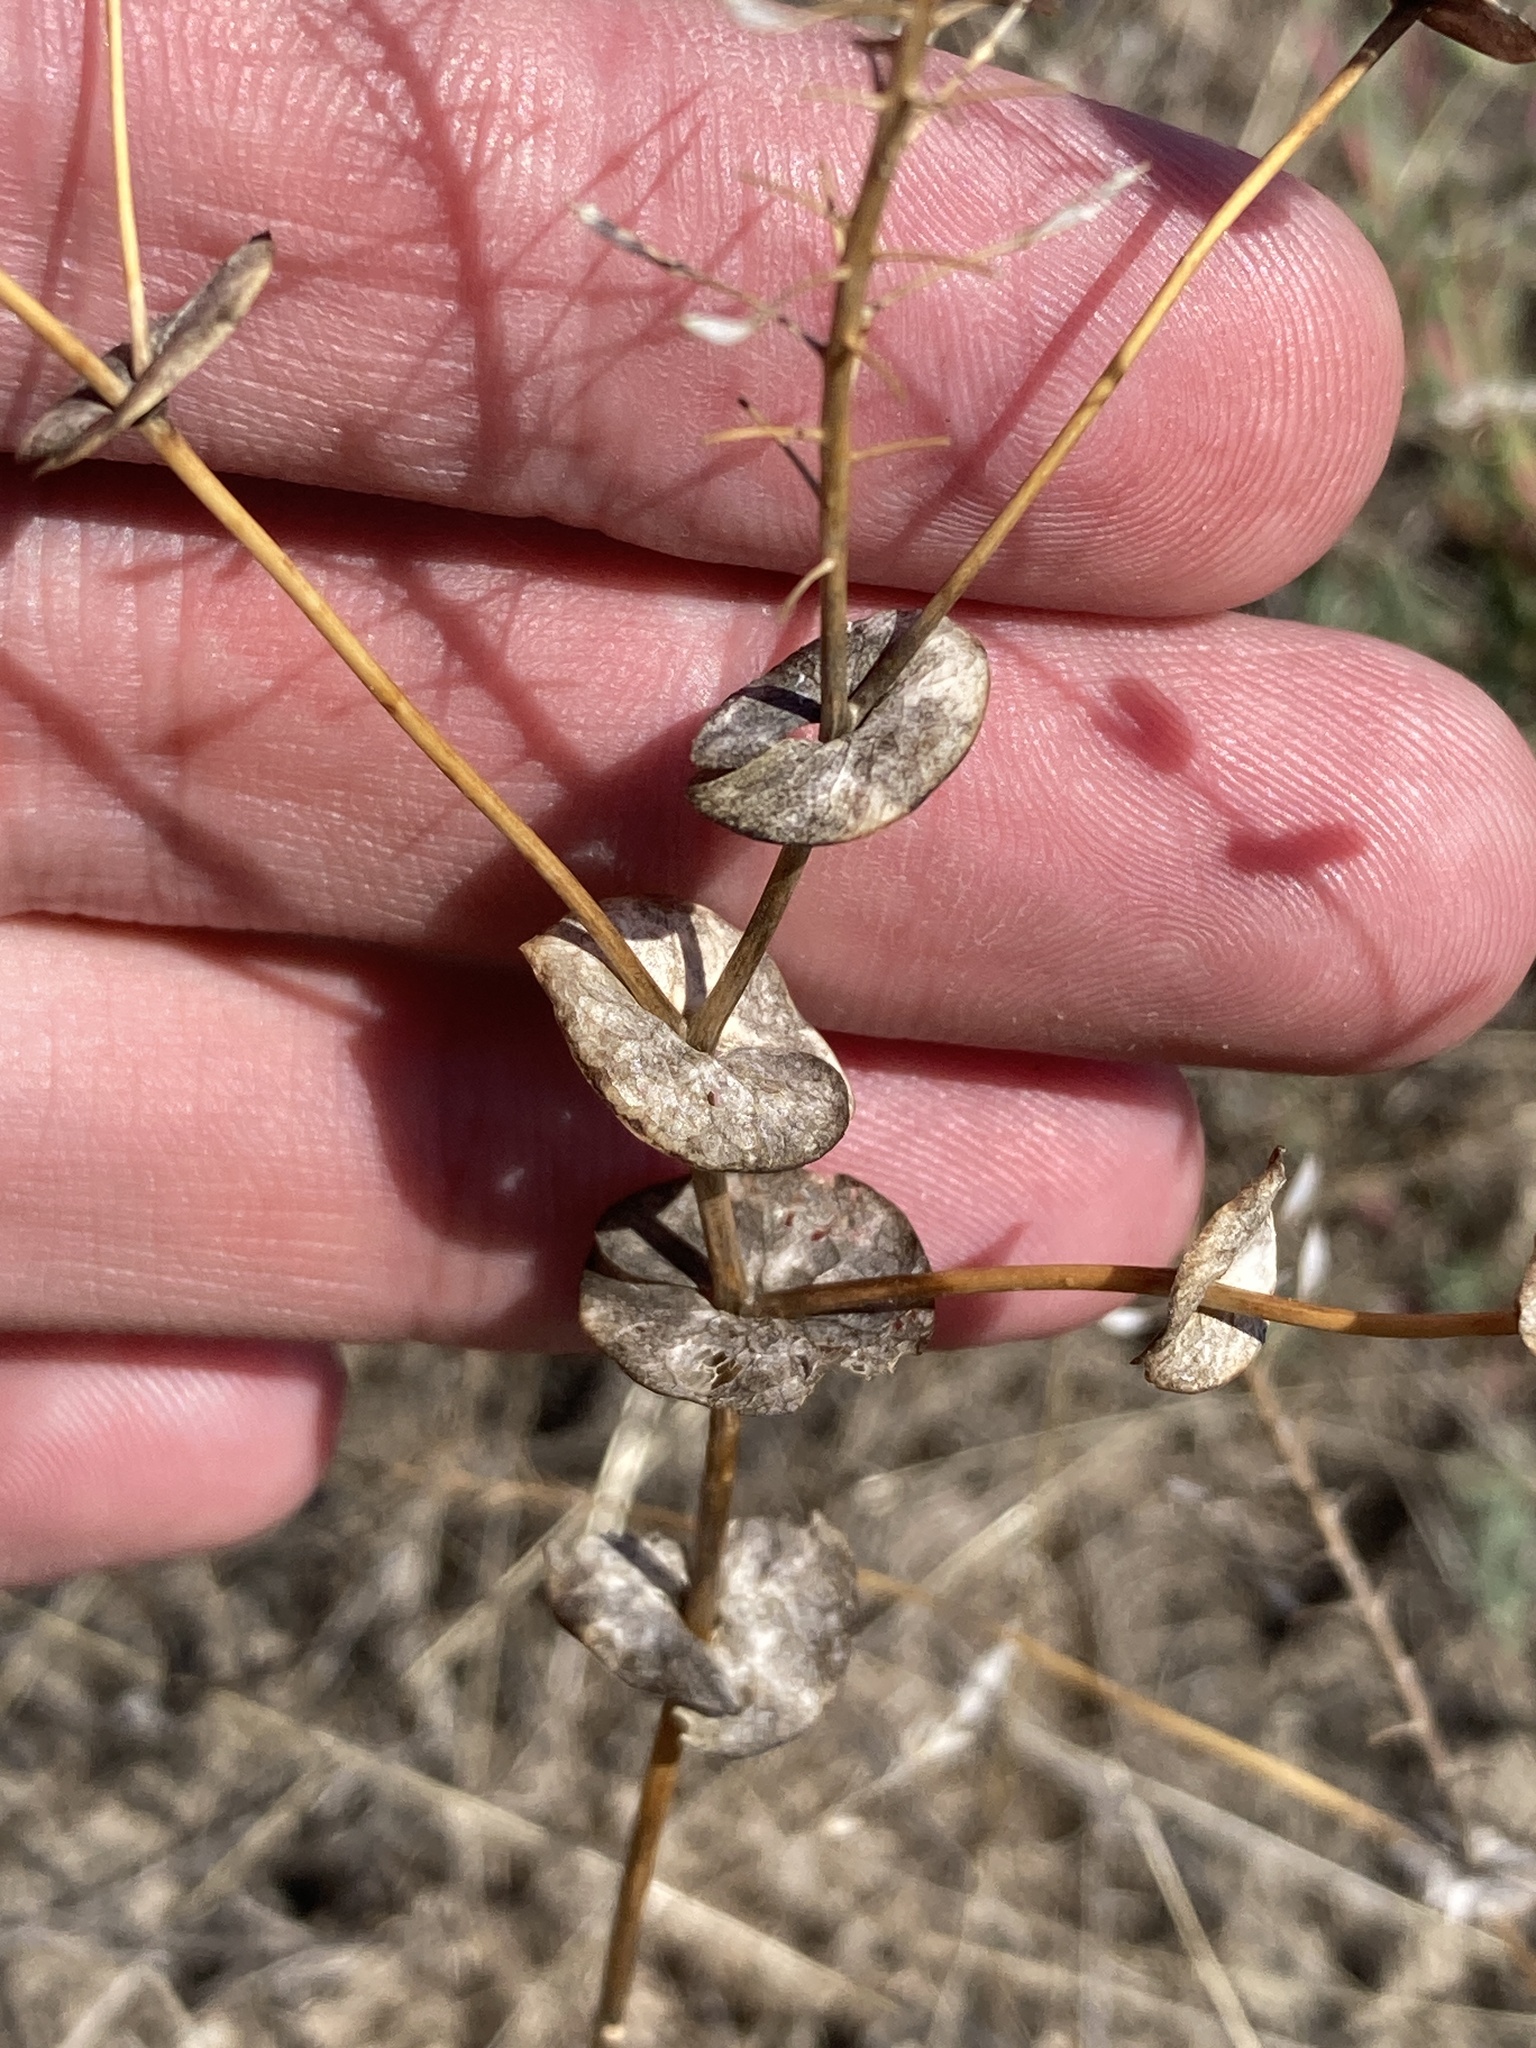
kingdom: Plantae
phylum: Tracheophyta
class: Magnoliopsida
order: Brassicales
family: Brassicaceae
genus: Lepidium
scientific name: Lepidium perfoliatum
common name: Perfoliate pepperwort
